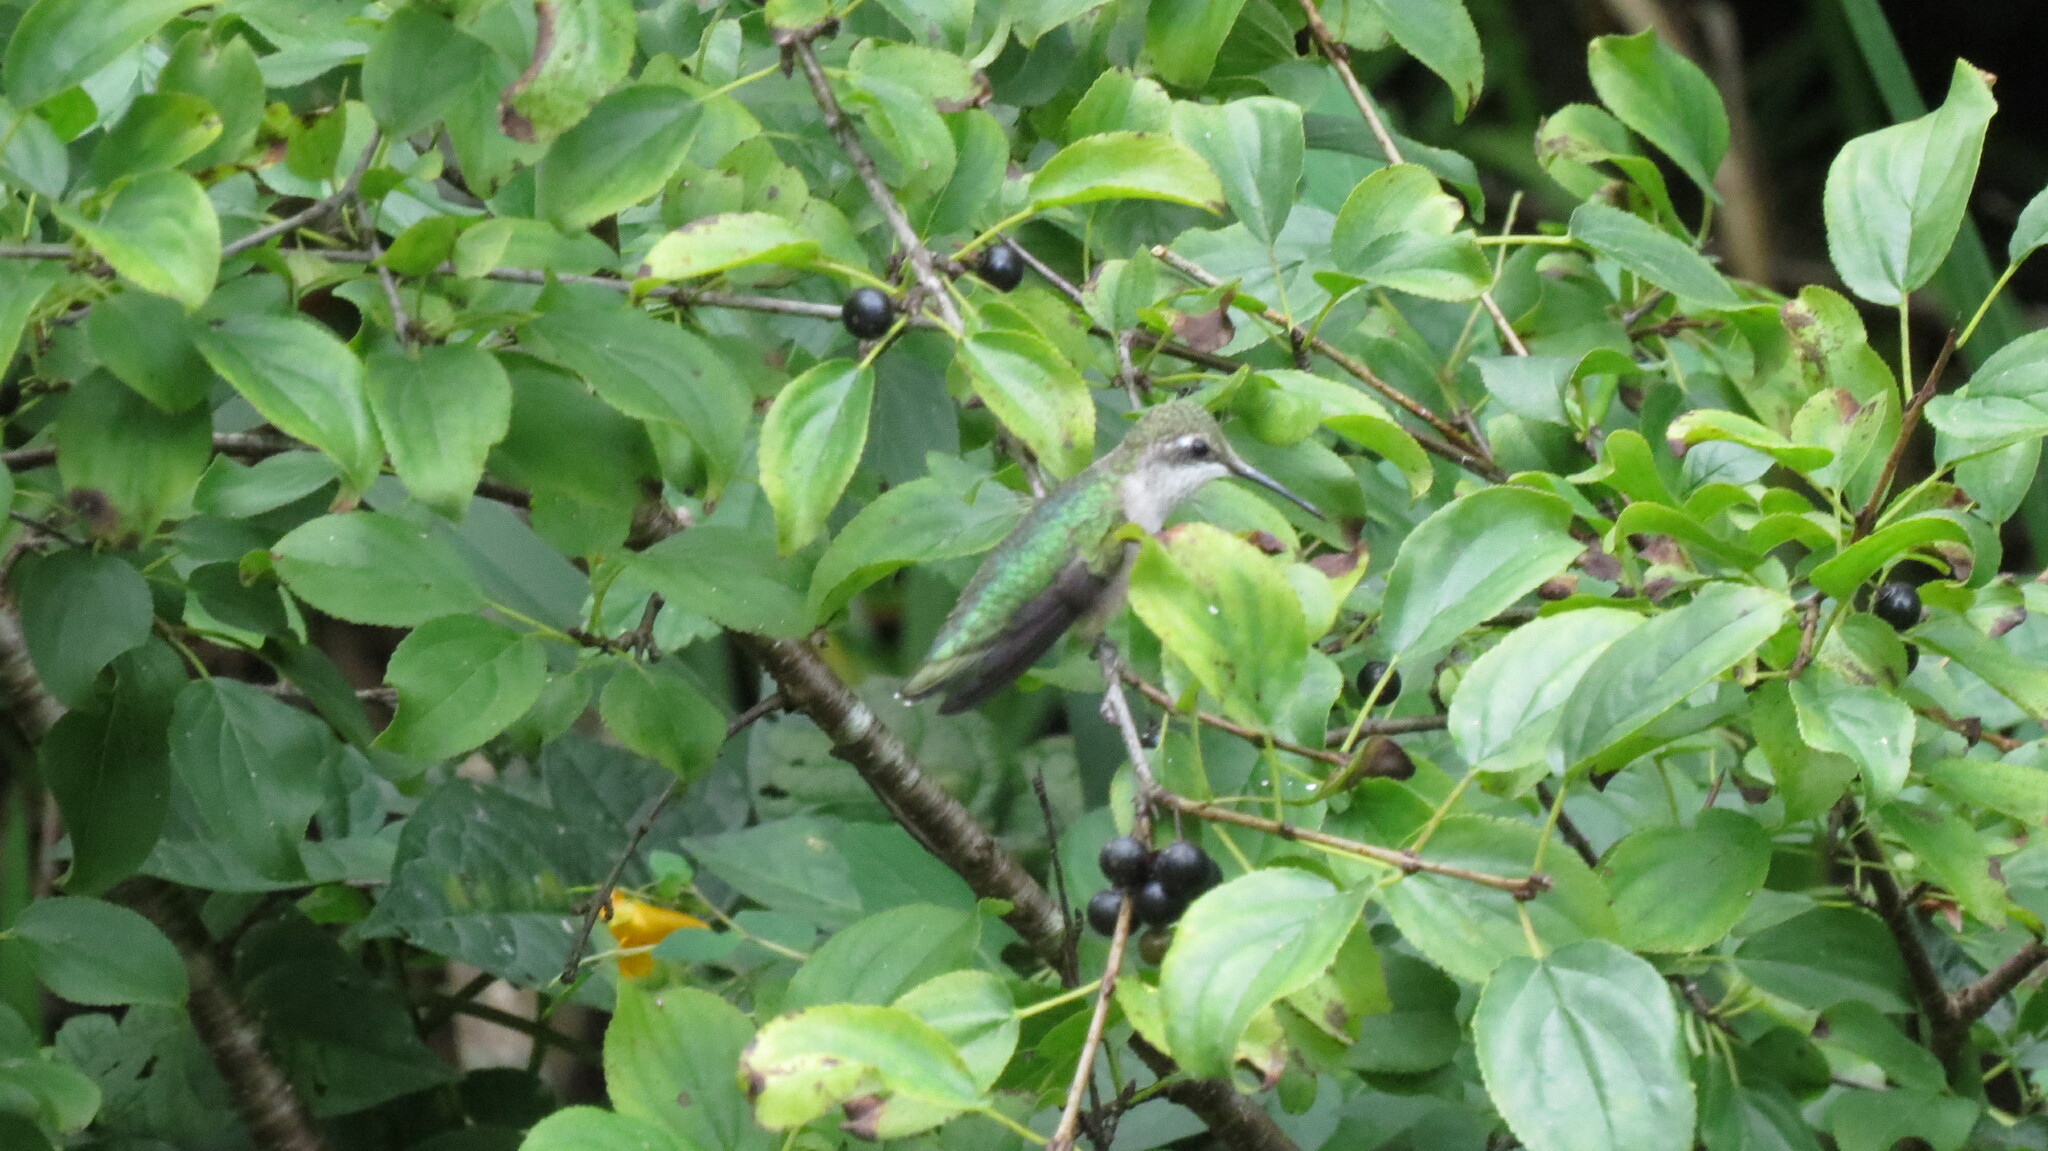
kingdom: Animalia
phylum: Chordata
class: Aves
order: Apodiformes
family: Trochilidae
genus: Archilochus
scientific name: Archilochus colubris
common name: Ruby-throated hummingbird
